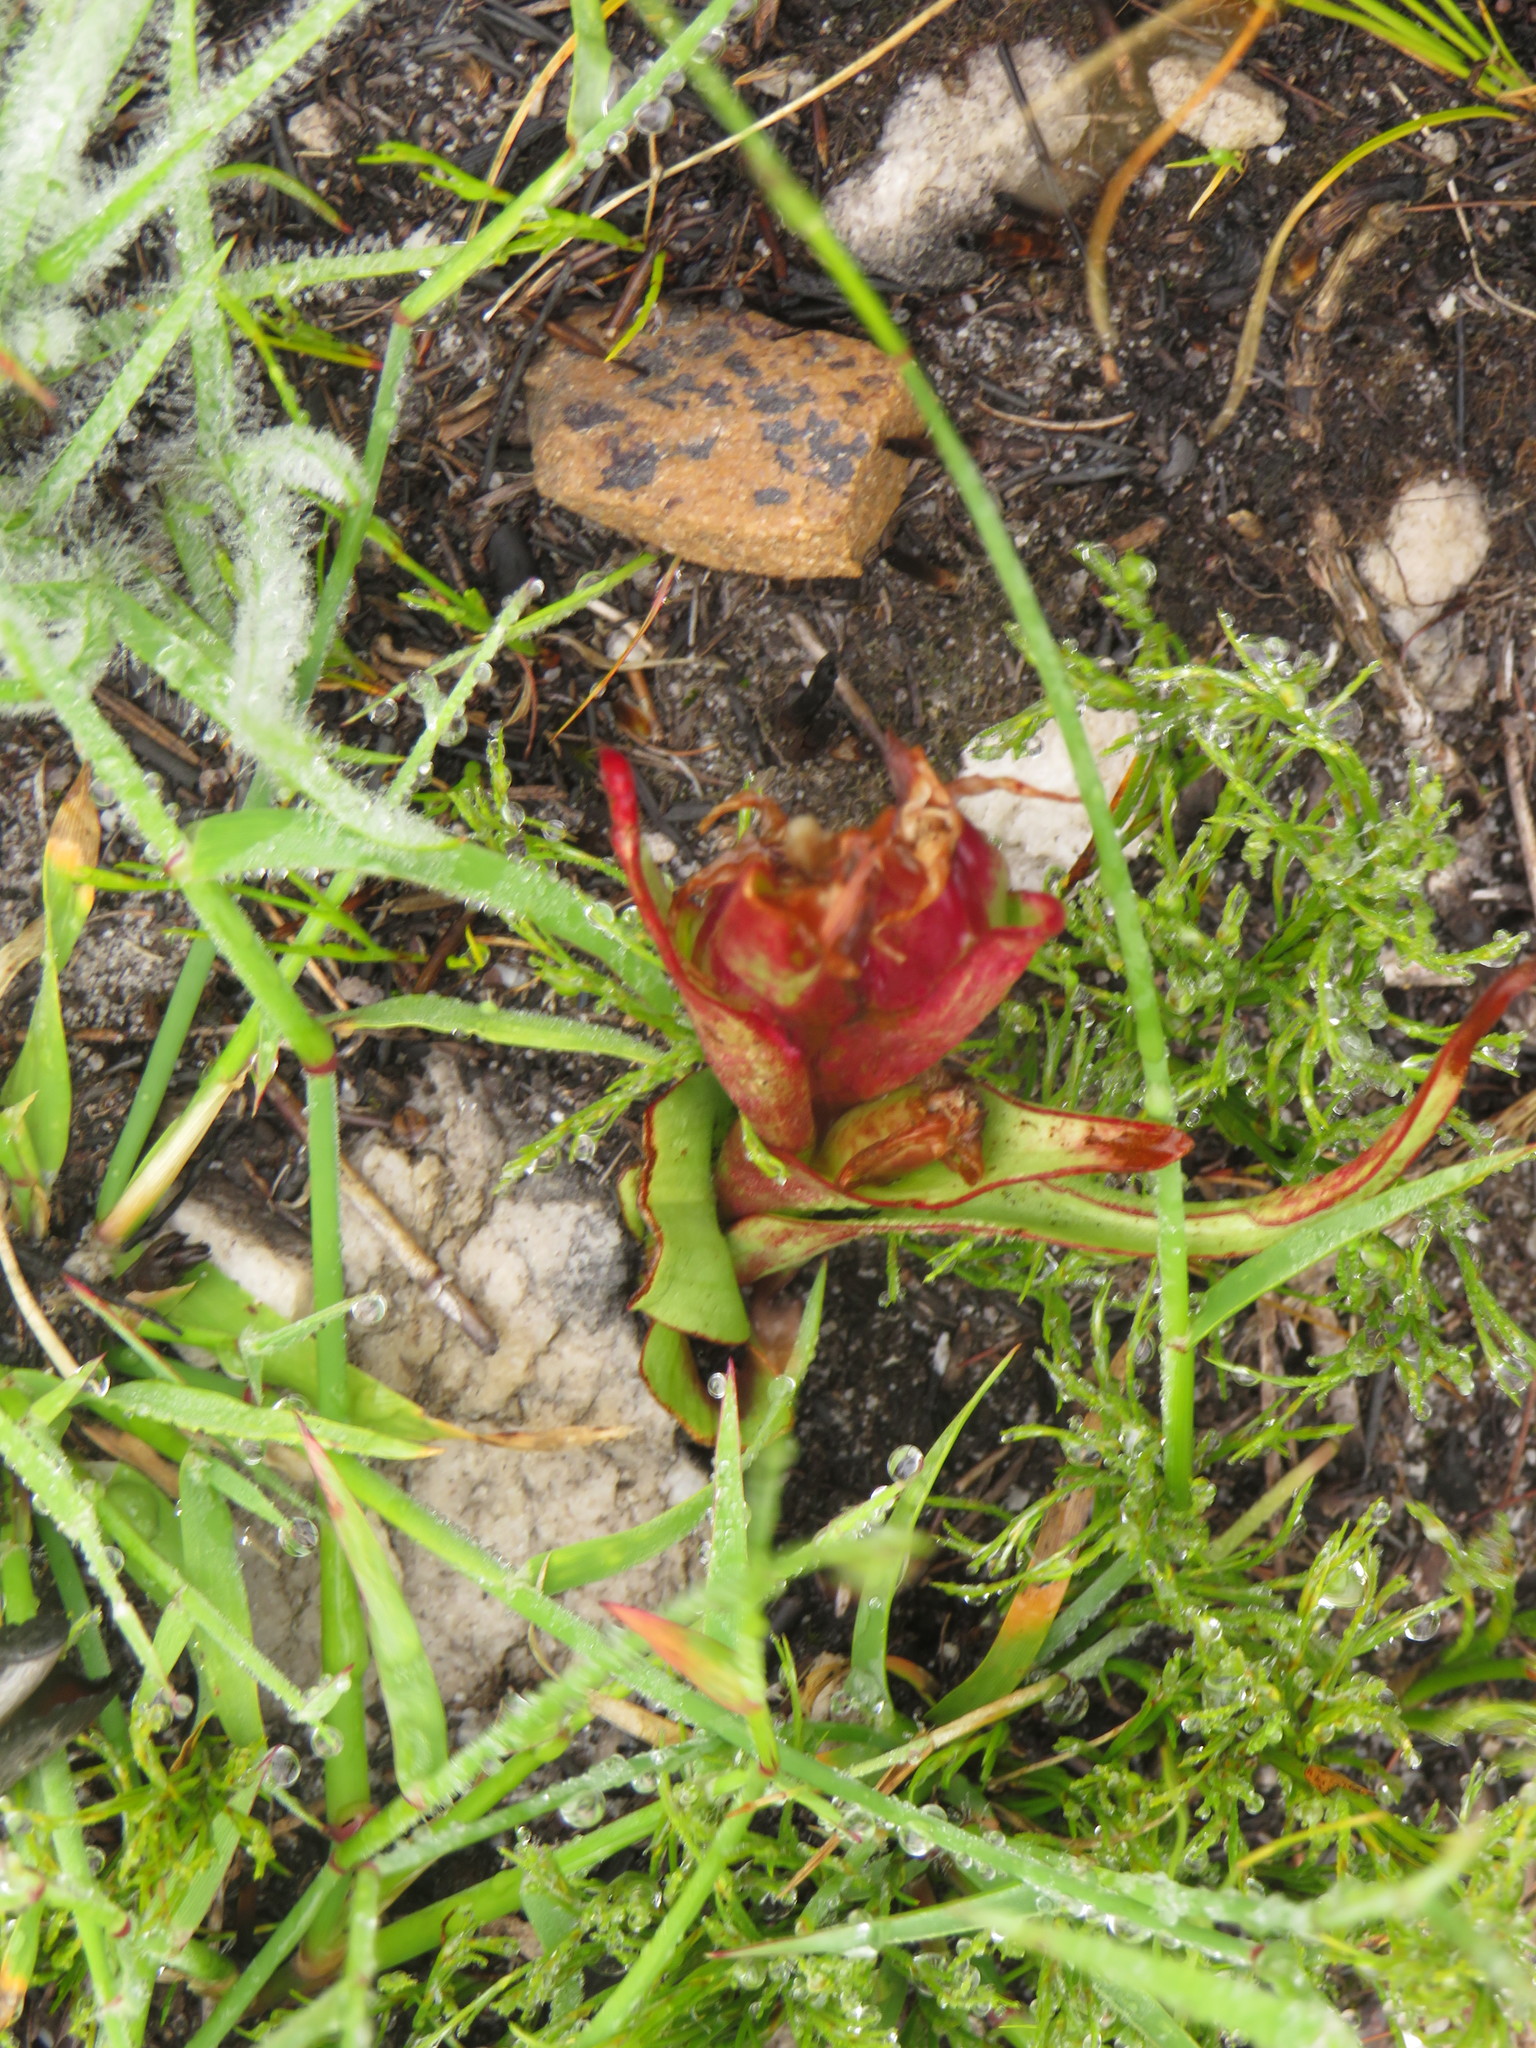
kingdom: Plantae
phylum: Tracheophyta
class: Liliopsida
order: Asparagales
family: Orchidaceae
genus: Disa
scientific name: Disa ophrydea
